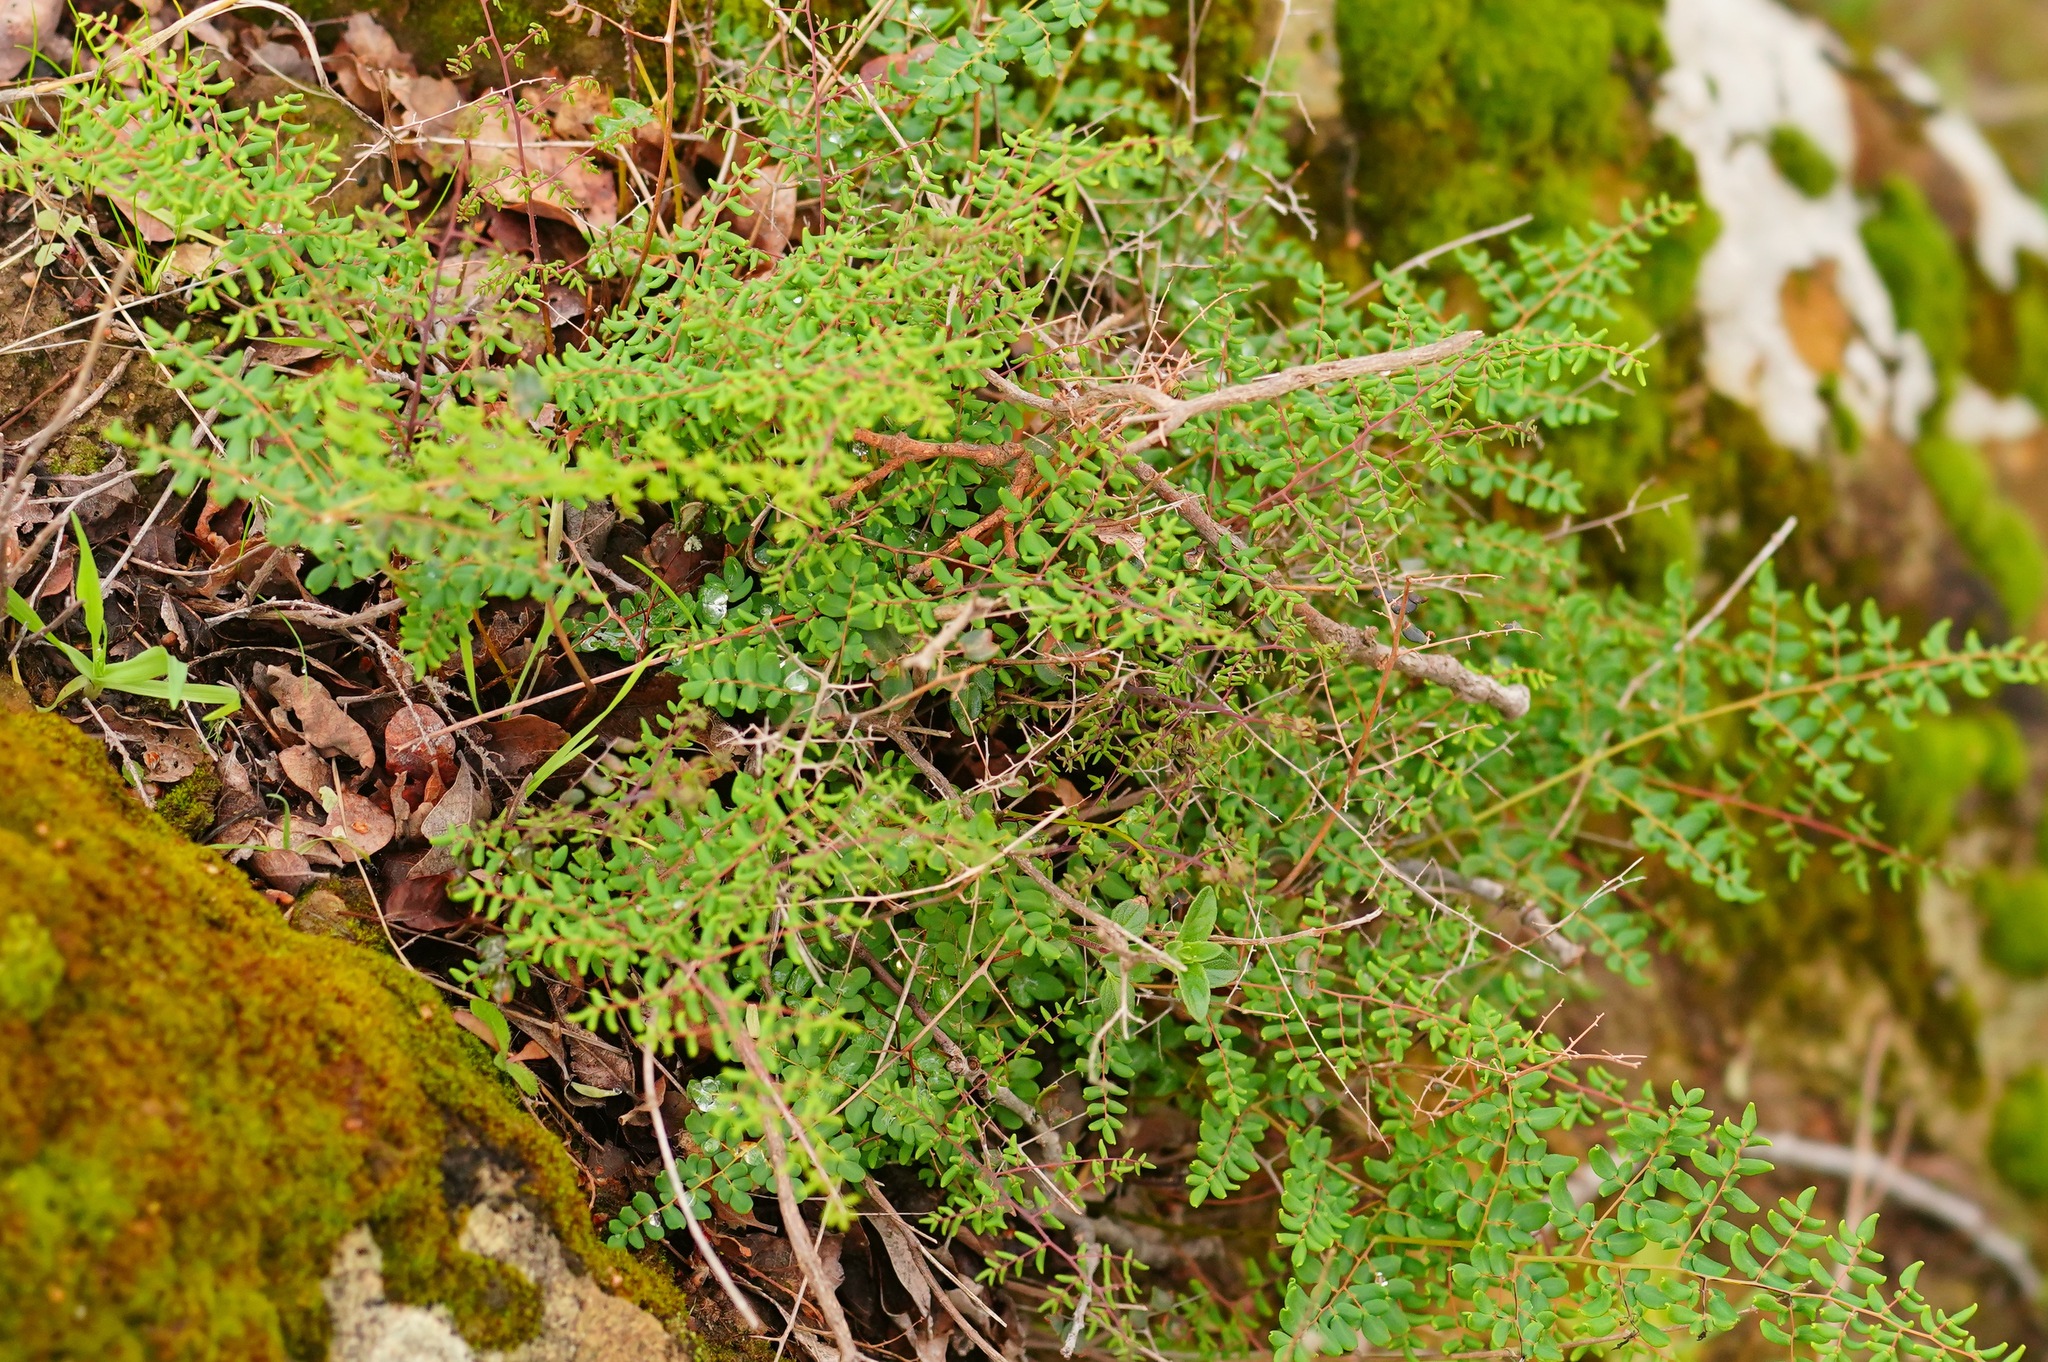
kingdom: Plantae
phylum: Tracheophyta
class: Polypodiopsida
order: Polypodiales
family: Pteridaceae
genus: Pellaea
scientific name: Pellaea andromedifolia
